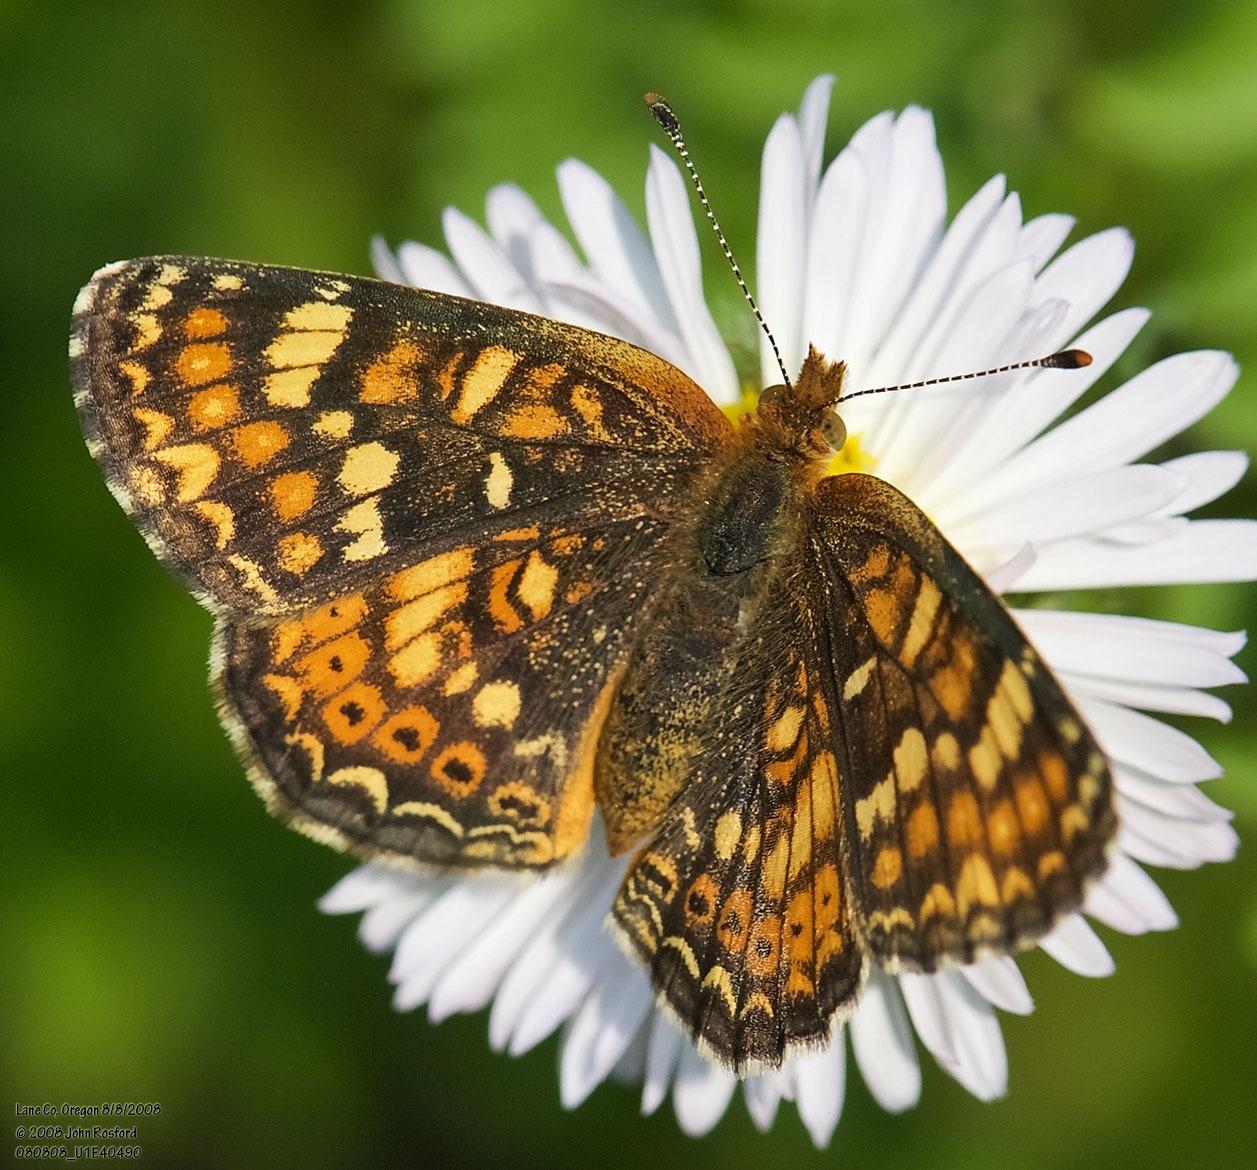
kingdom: Animalia
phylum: Arthropoda
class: Insecta
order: Lepidoptera
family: Nymphalidae
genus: Phyciodes
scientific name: Phyciodes tharos
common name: Pearl crescent
